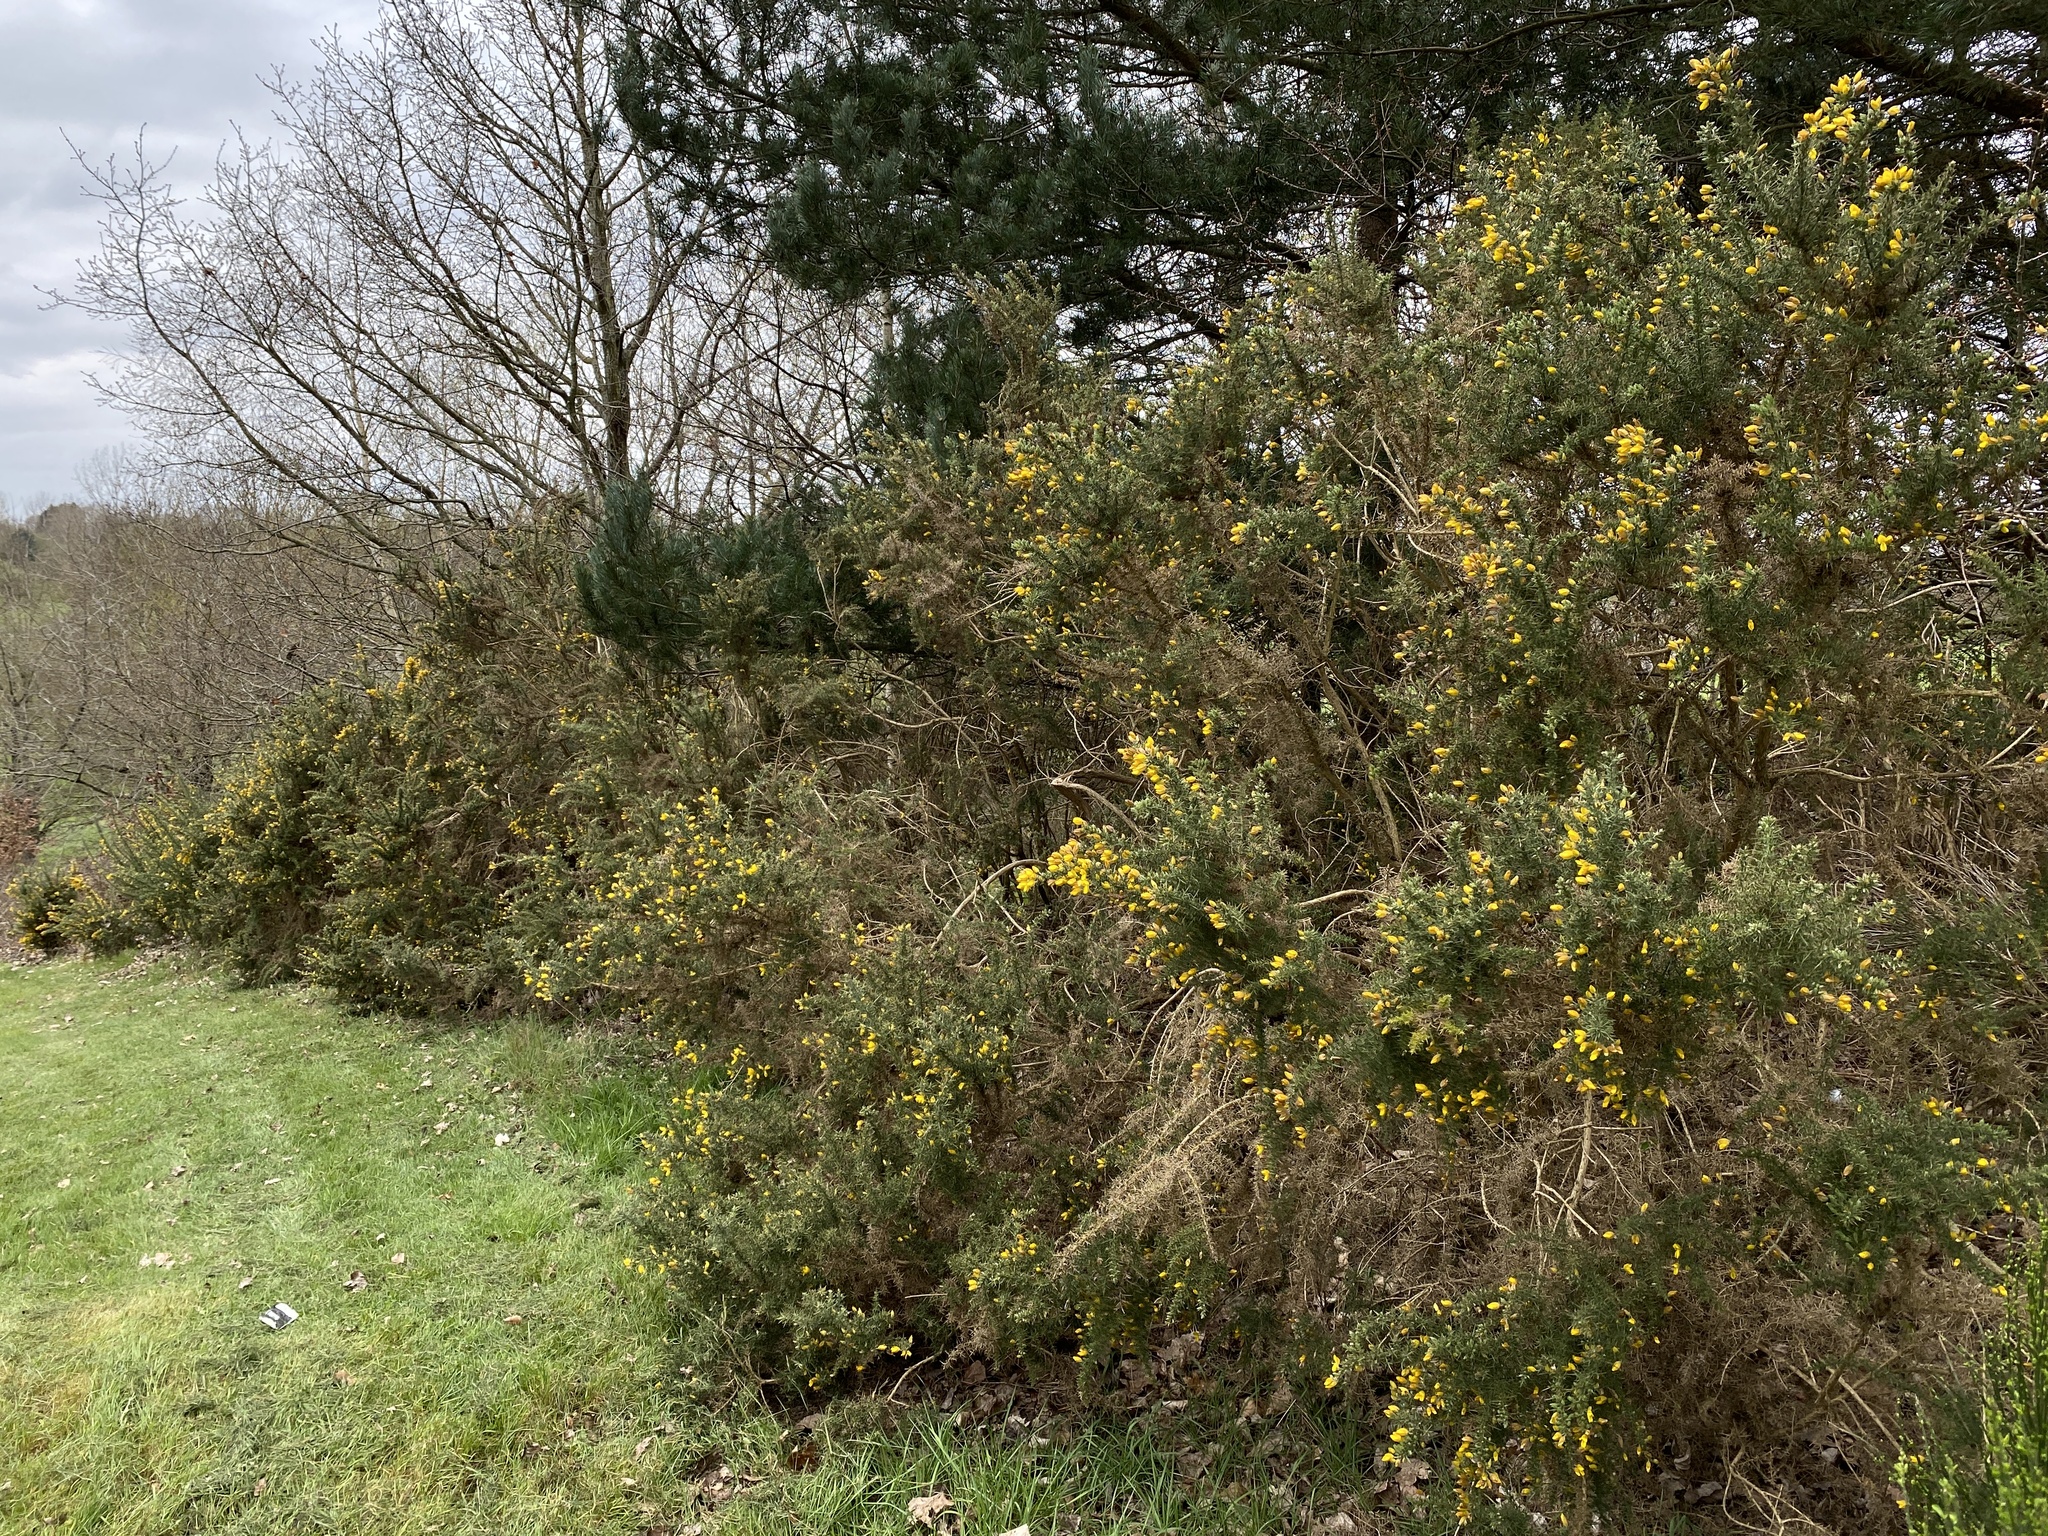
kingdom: Plantae
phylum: Tracheophyta
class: Magnoliopsida
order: Fabales
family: Fabaceae
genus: Ulex
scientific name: Ulex europaeus
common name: Common gorse
